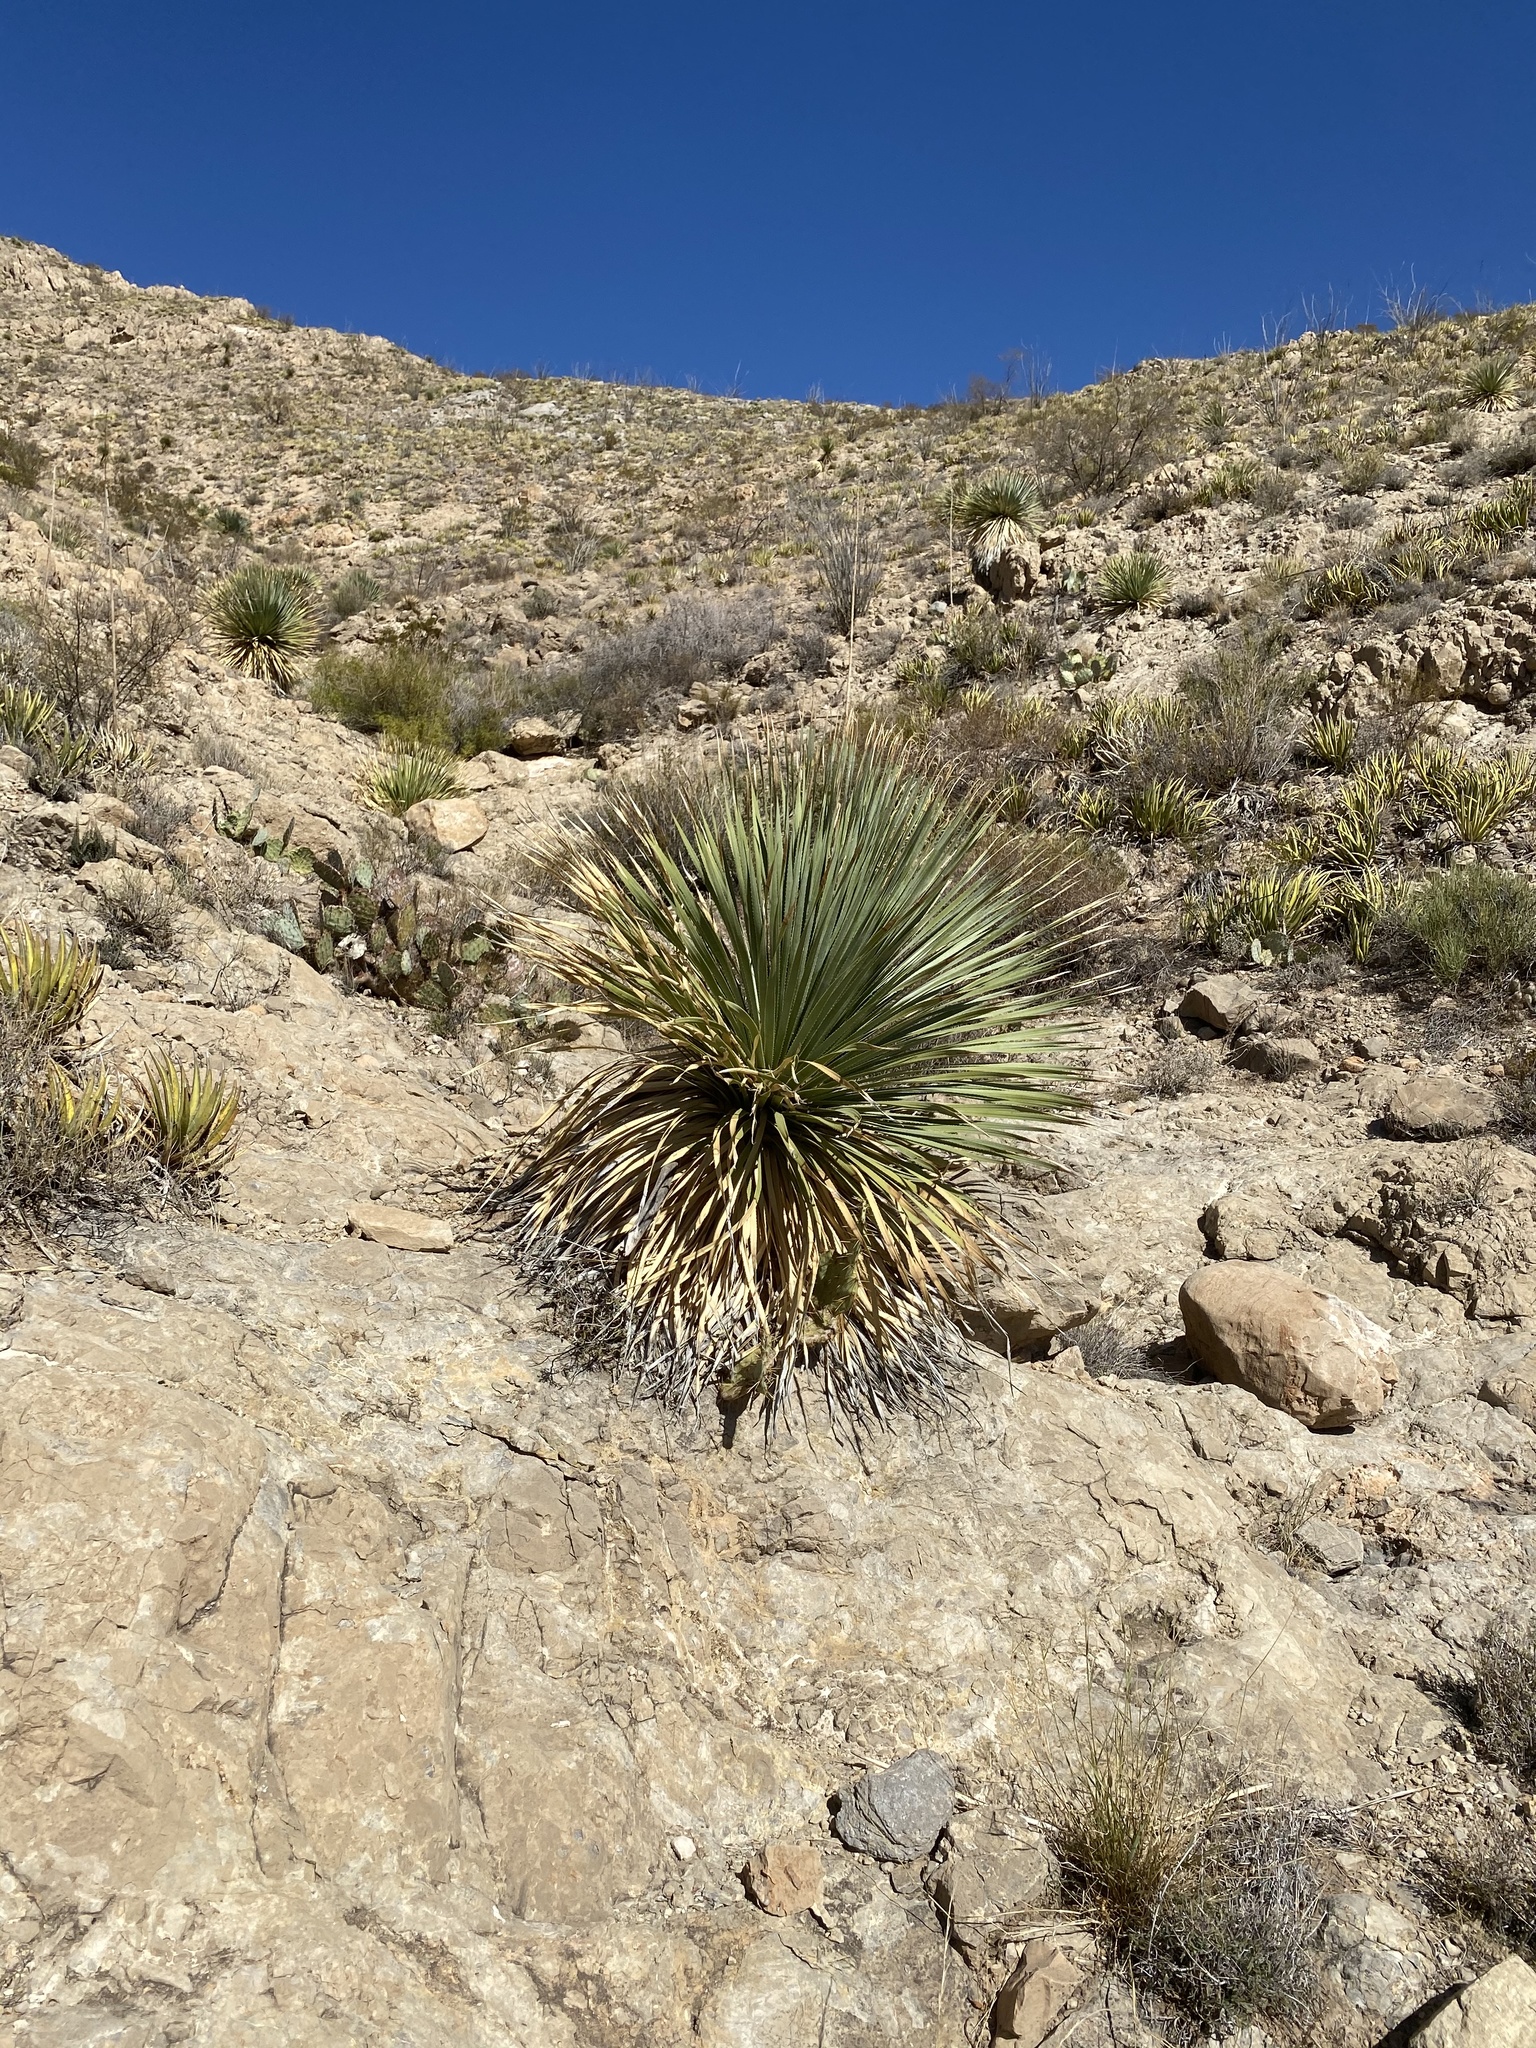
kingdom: Plantae
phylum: Tracheophyta
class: Liliopsida
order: Asparagales
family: Asparagaceae
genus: Dasylirion
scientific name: Dasylirion wheeleri
